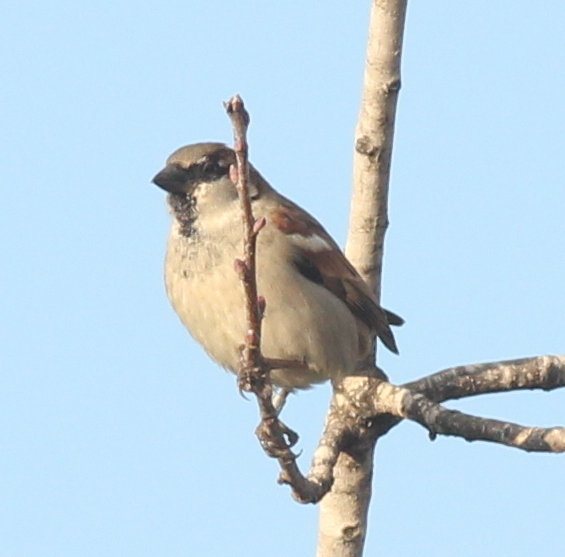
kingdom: Animalia
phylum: Chordata
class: Aves
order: Passeriformes
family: Passeridae
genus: Passer
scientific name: Passer domesticus
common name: House sparrow
